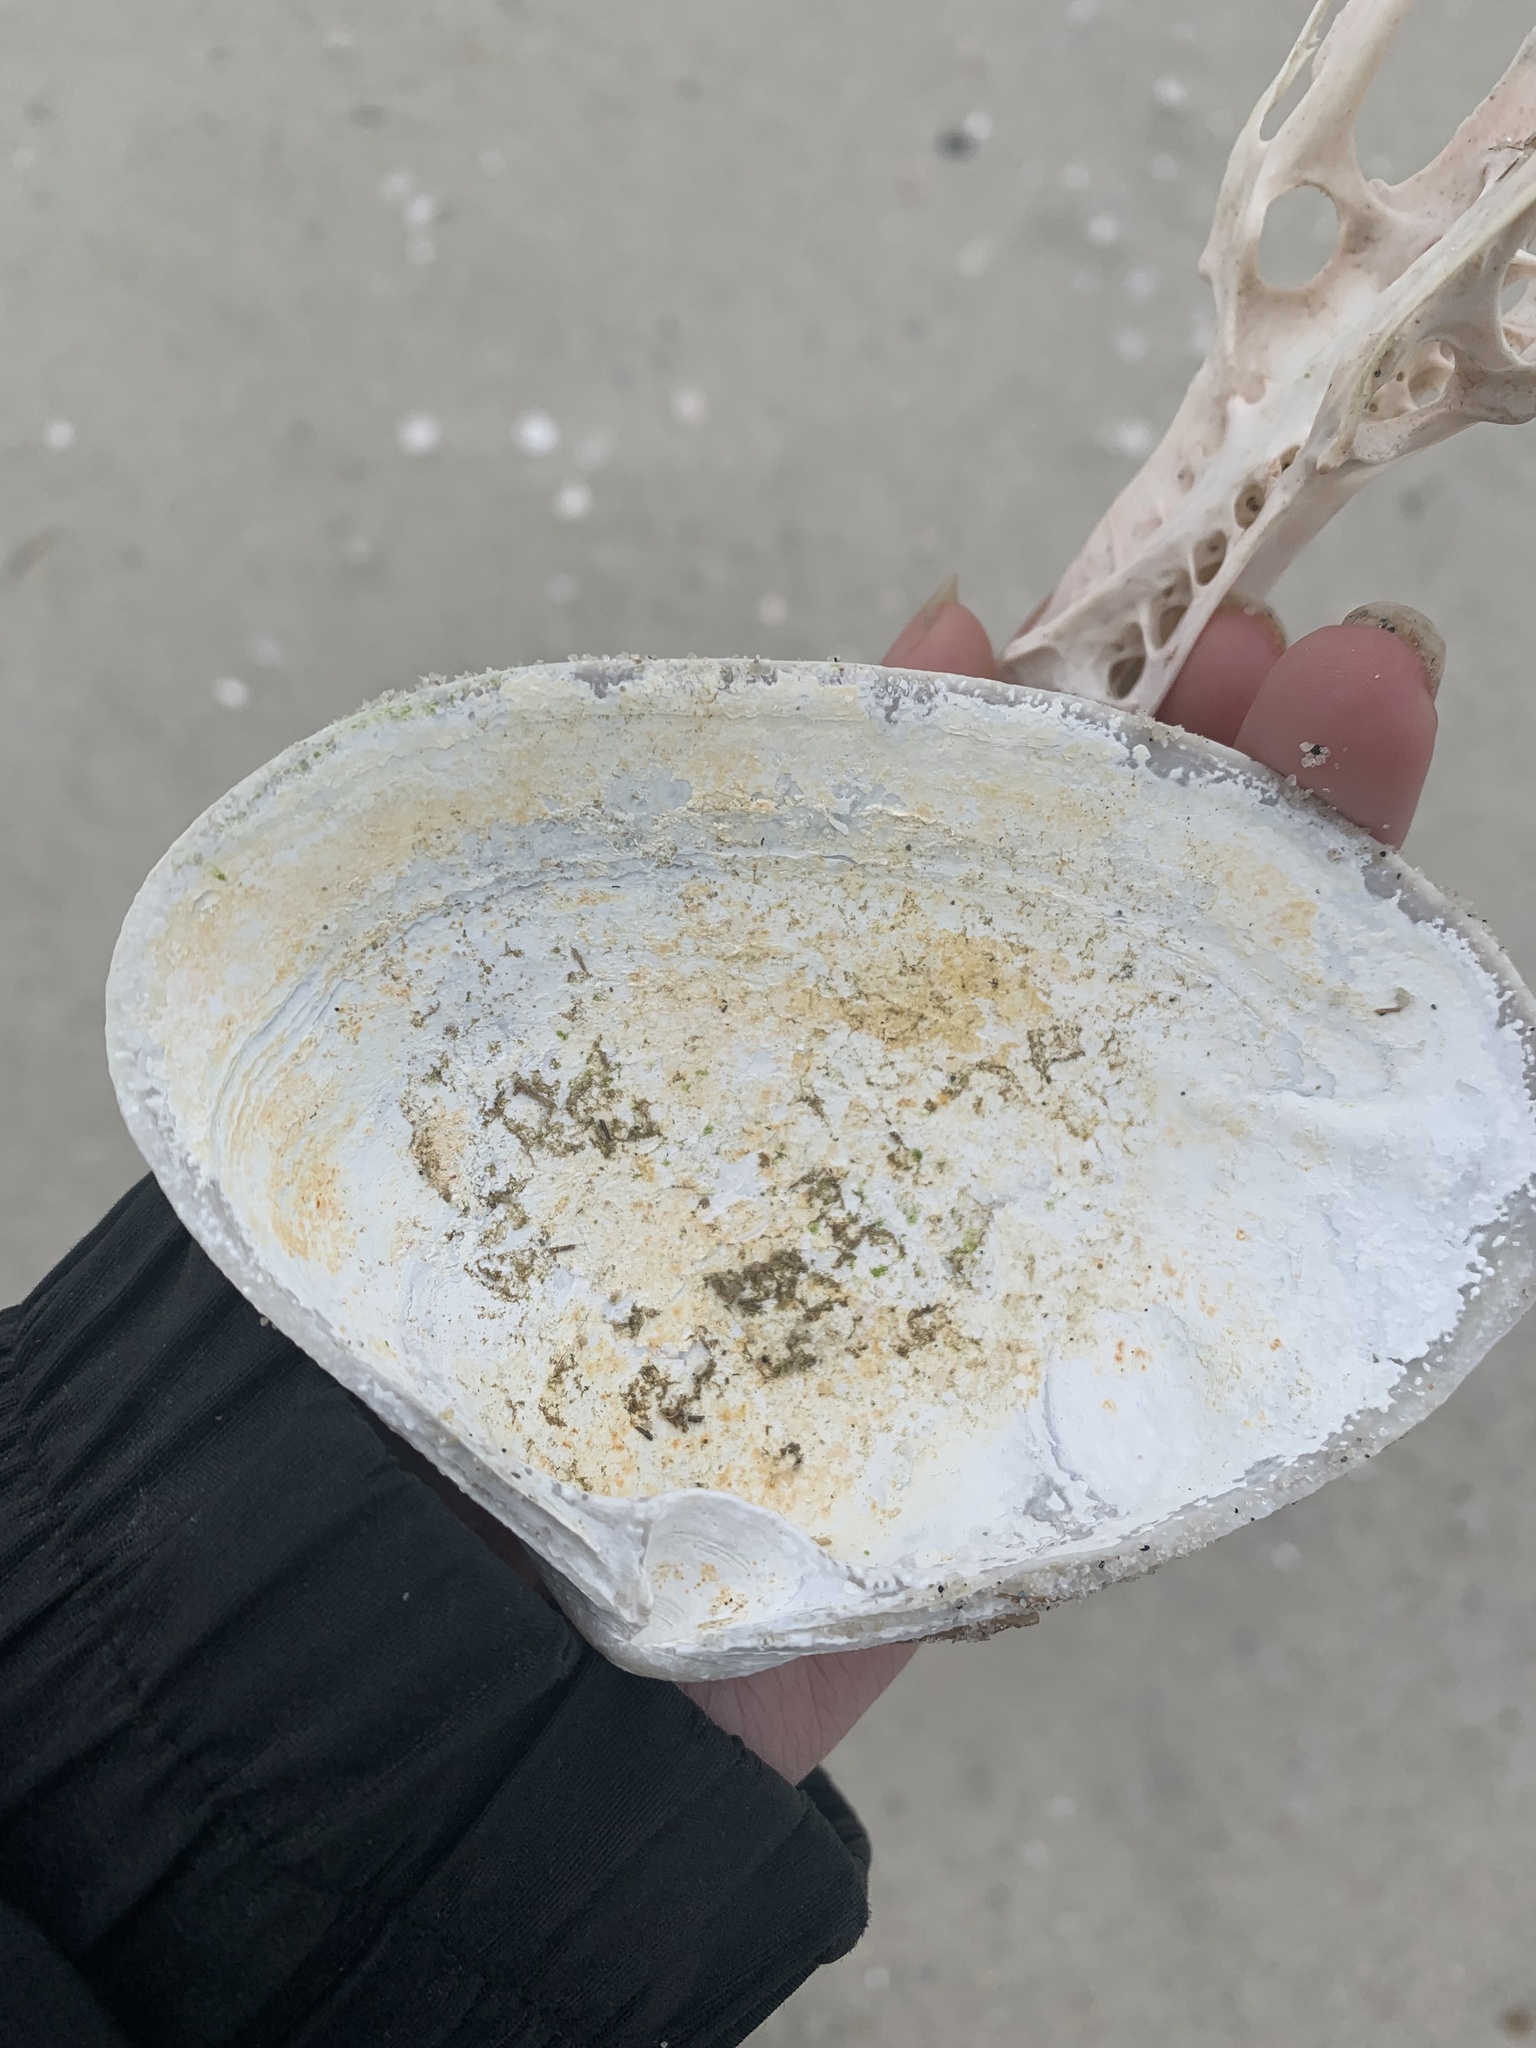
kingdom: Animalia
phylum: Mollusca
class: Bivalvia
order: Venerida
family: Mactridae
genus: Spisula
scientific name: Spisula solidissima
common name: Atlantic surf clam
